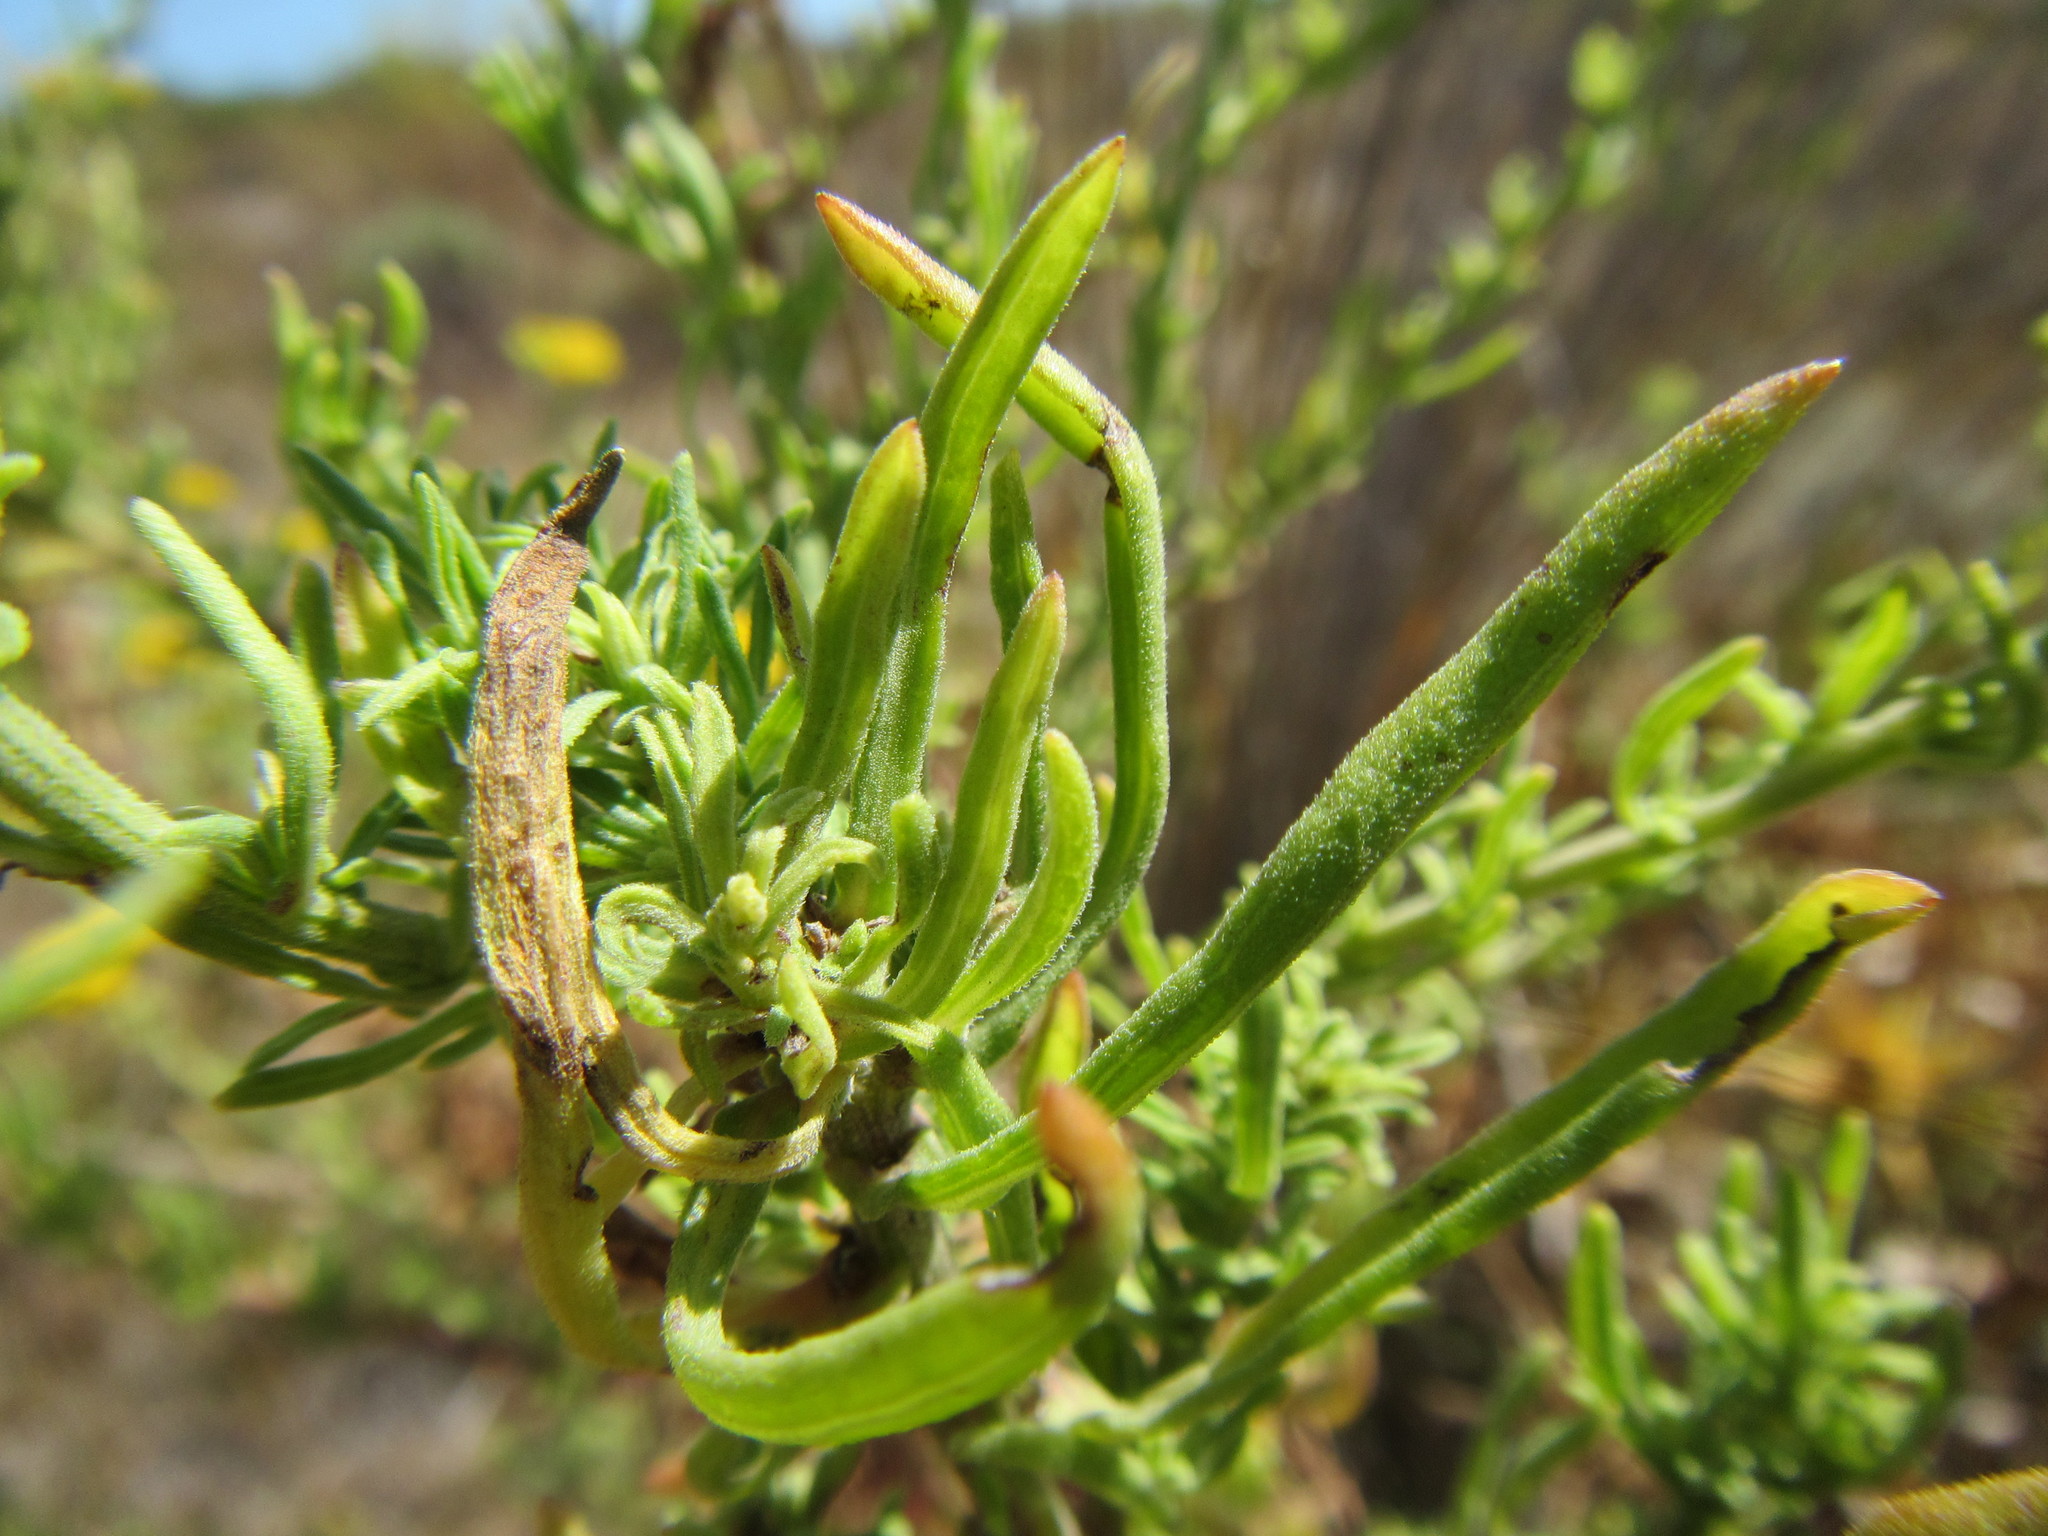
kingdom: Plantae
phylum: Tracheophyta
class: Magnoliopsida
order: Asterales
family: Asteraceae
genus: Nidorella
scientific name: Nidorella foetida
